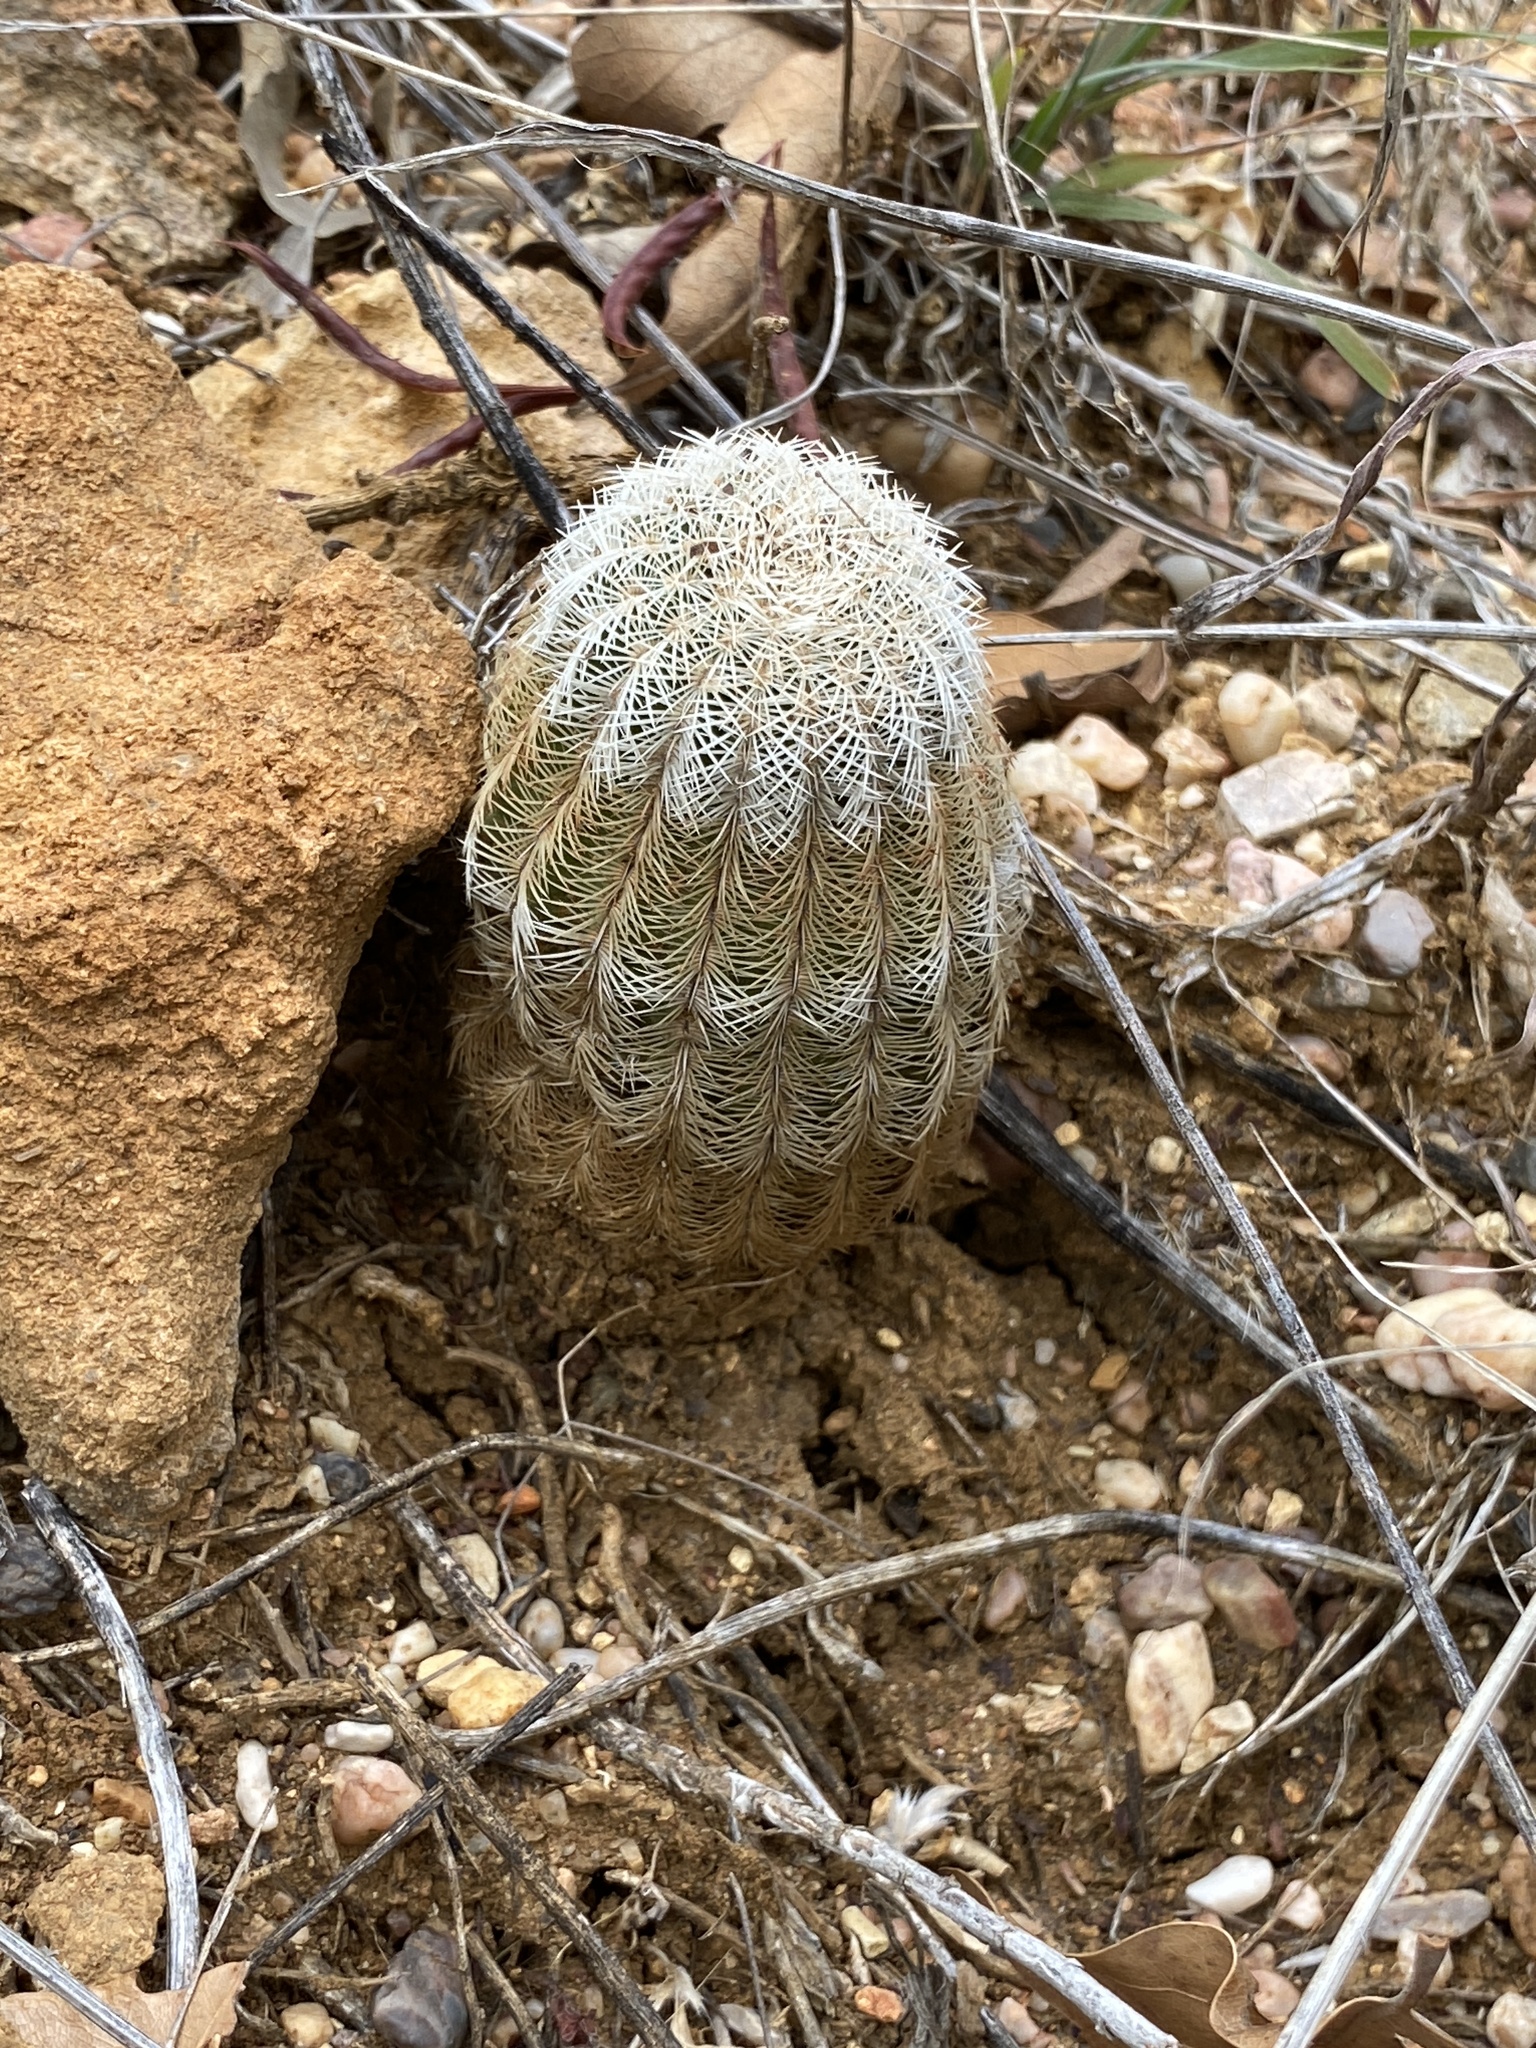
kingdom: Plantae
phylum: Tracheophyta
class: Magnoliopsida
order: Caryophyllales
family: Cactaceae
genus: Echinocereus
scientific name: Echinocereus reichenbachii
